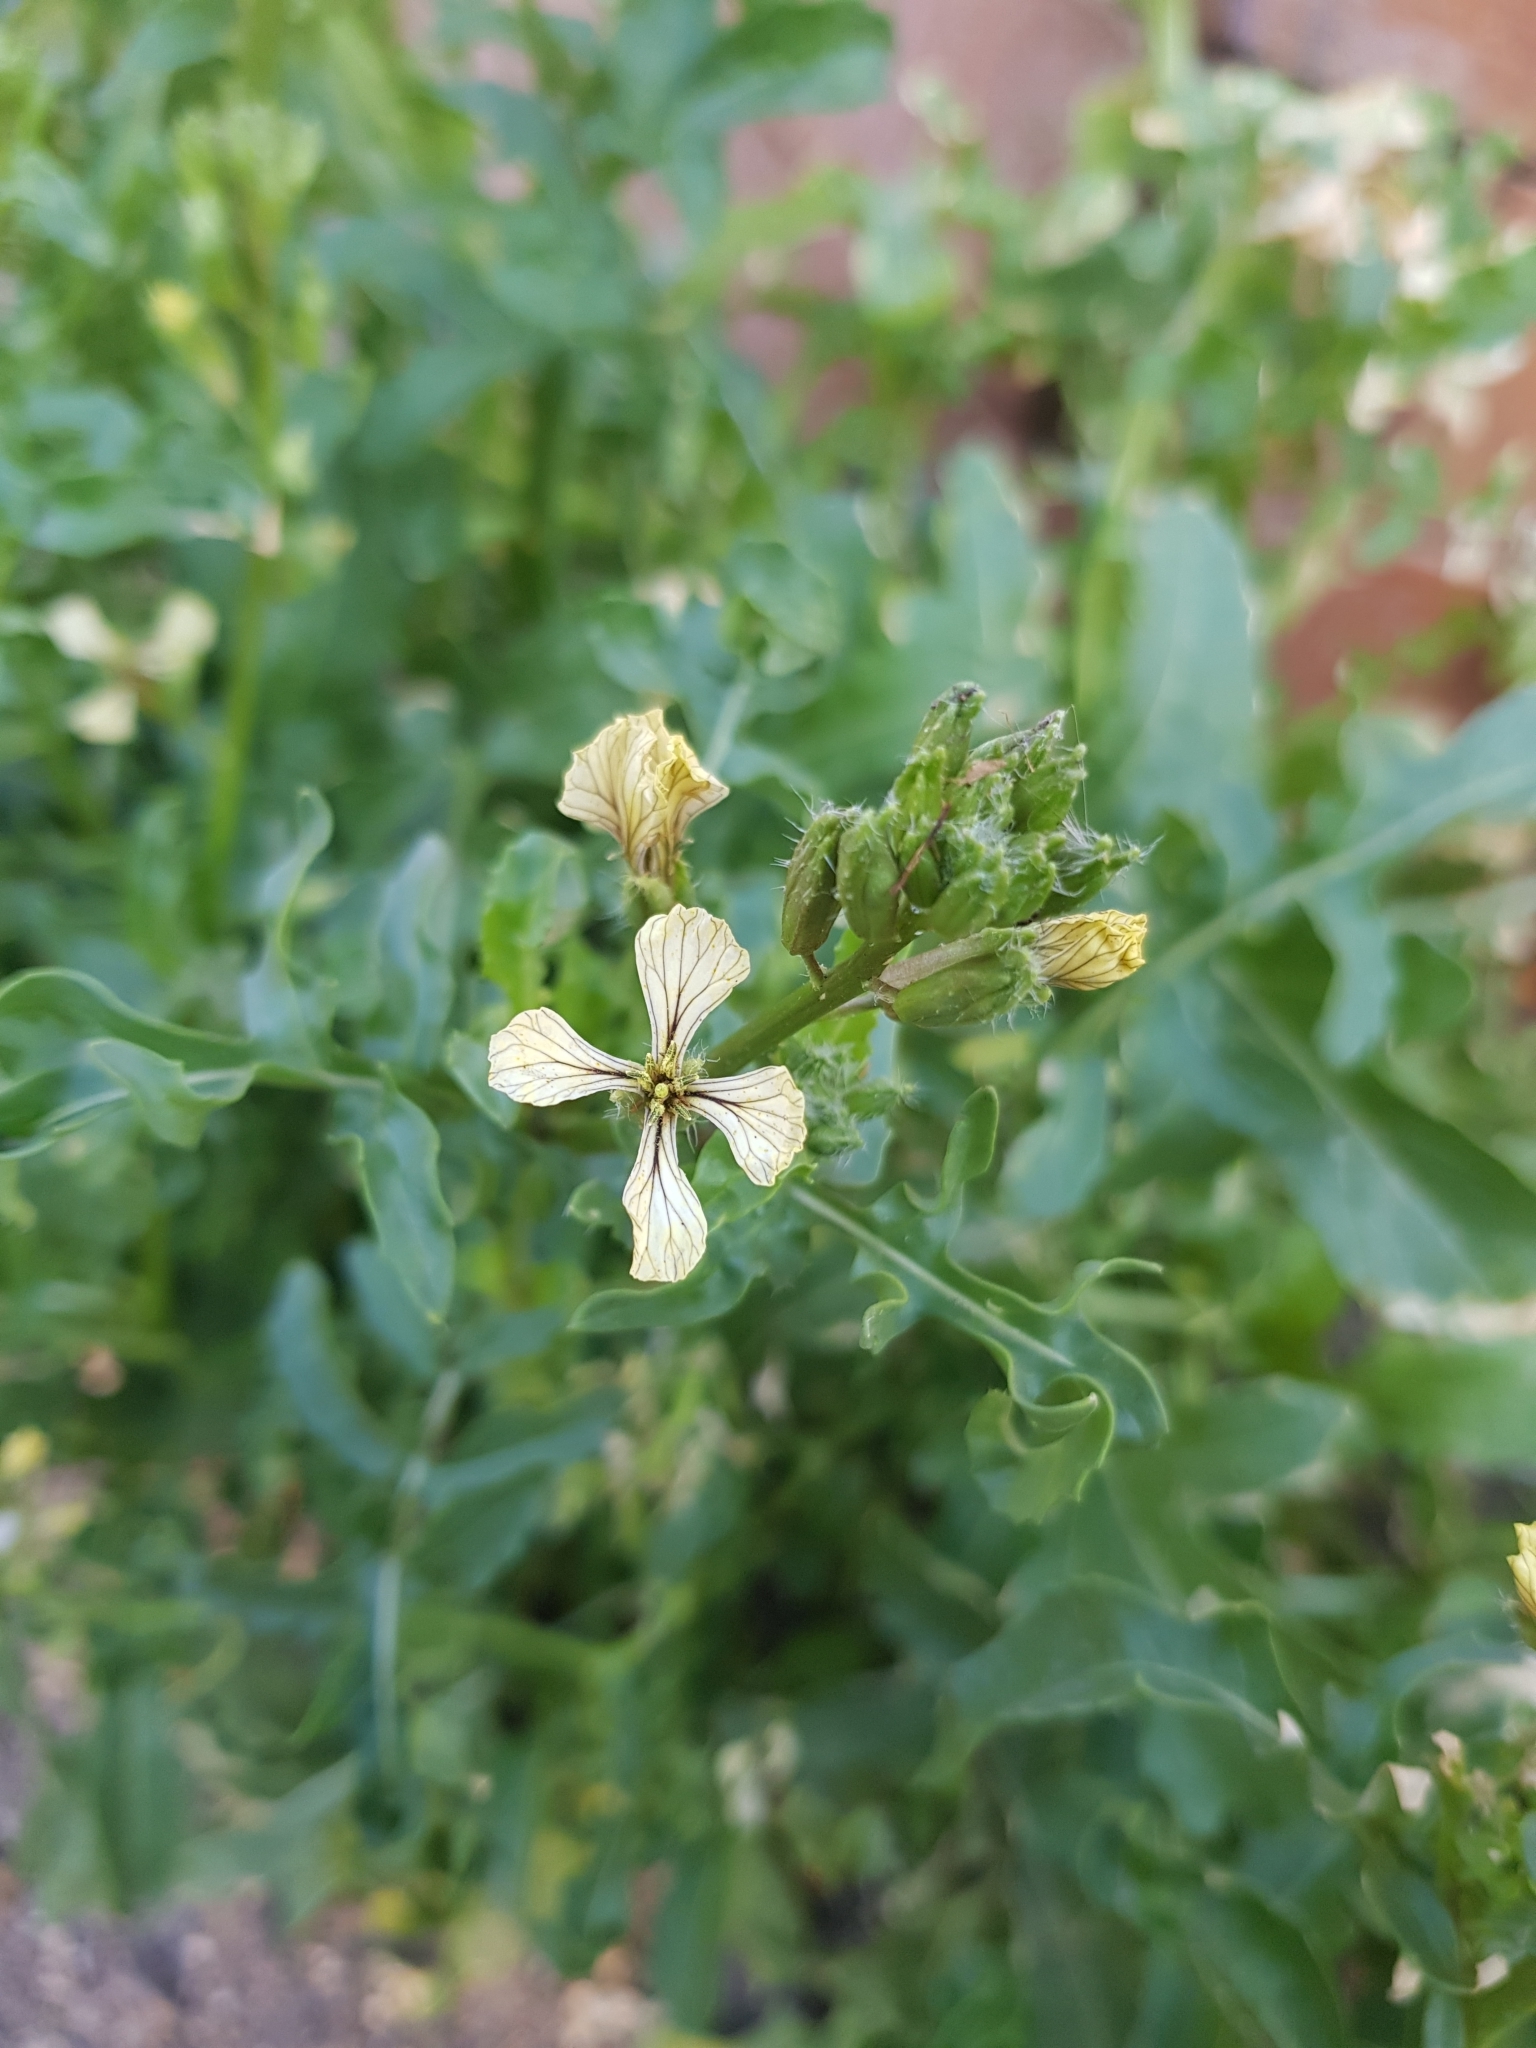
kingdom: Plantae
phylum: Tracheophyta
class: Magnoliopsida
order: Brassicales
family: Brassicaceae
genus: Eruca
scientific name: Eruca vesicaria
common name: Garden rocket
